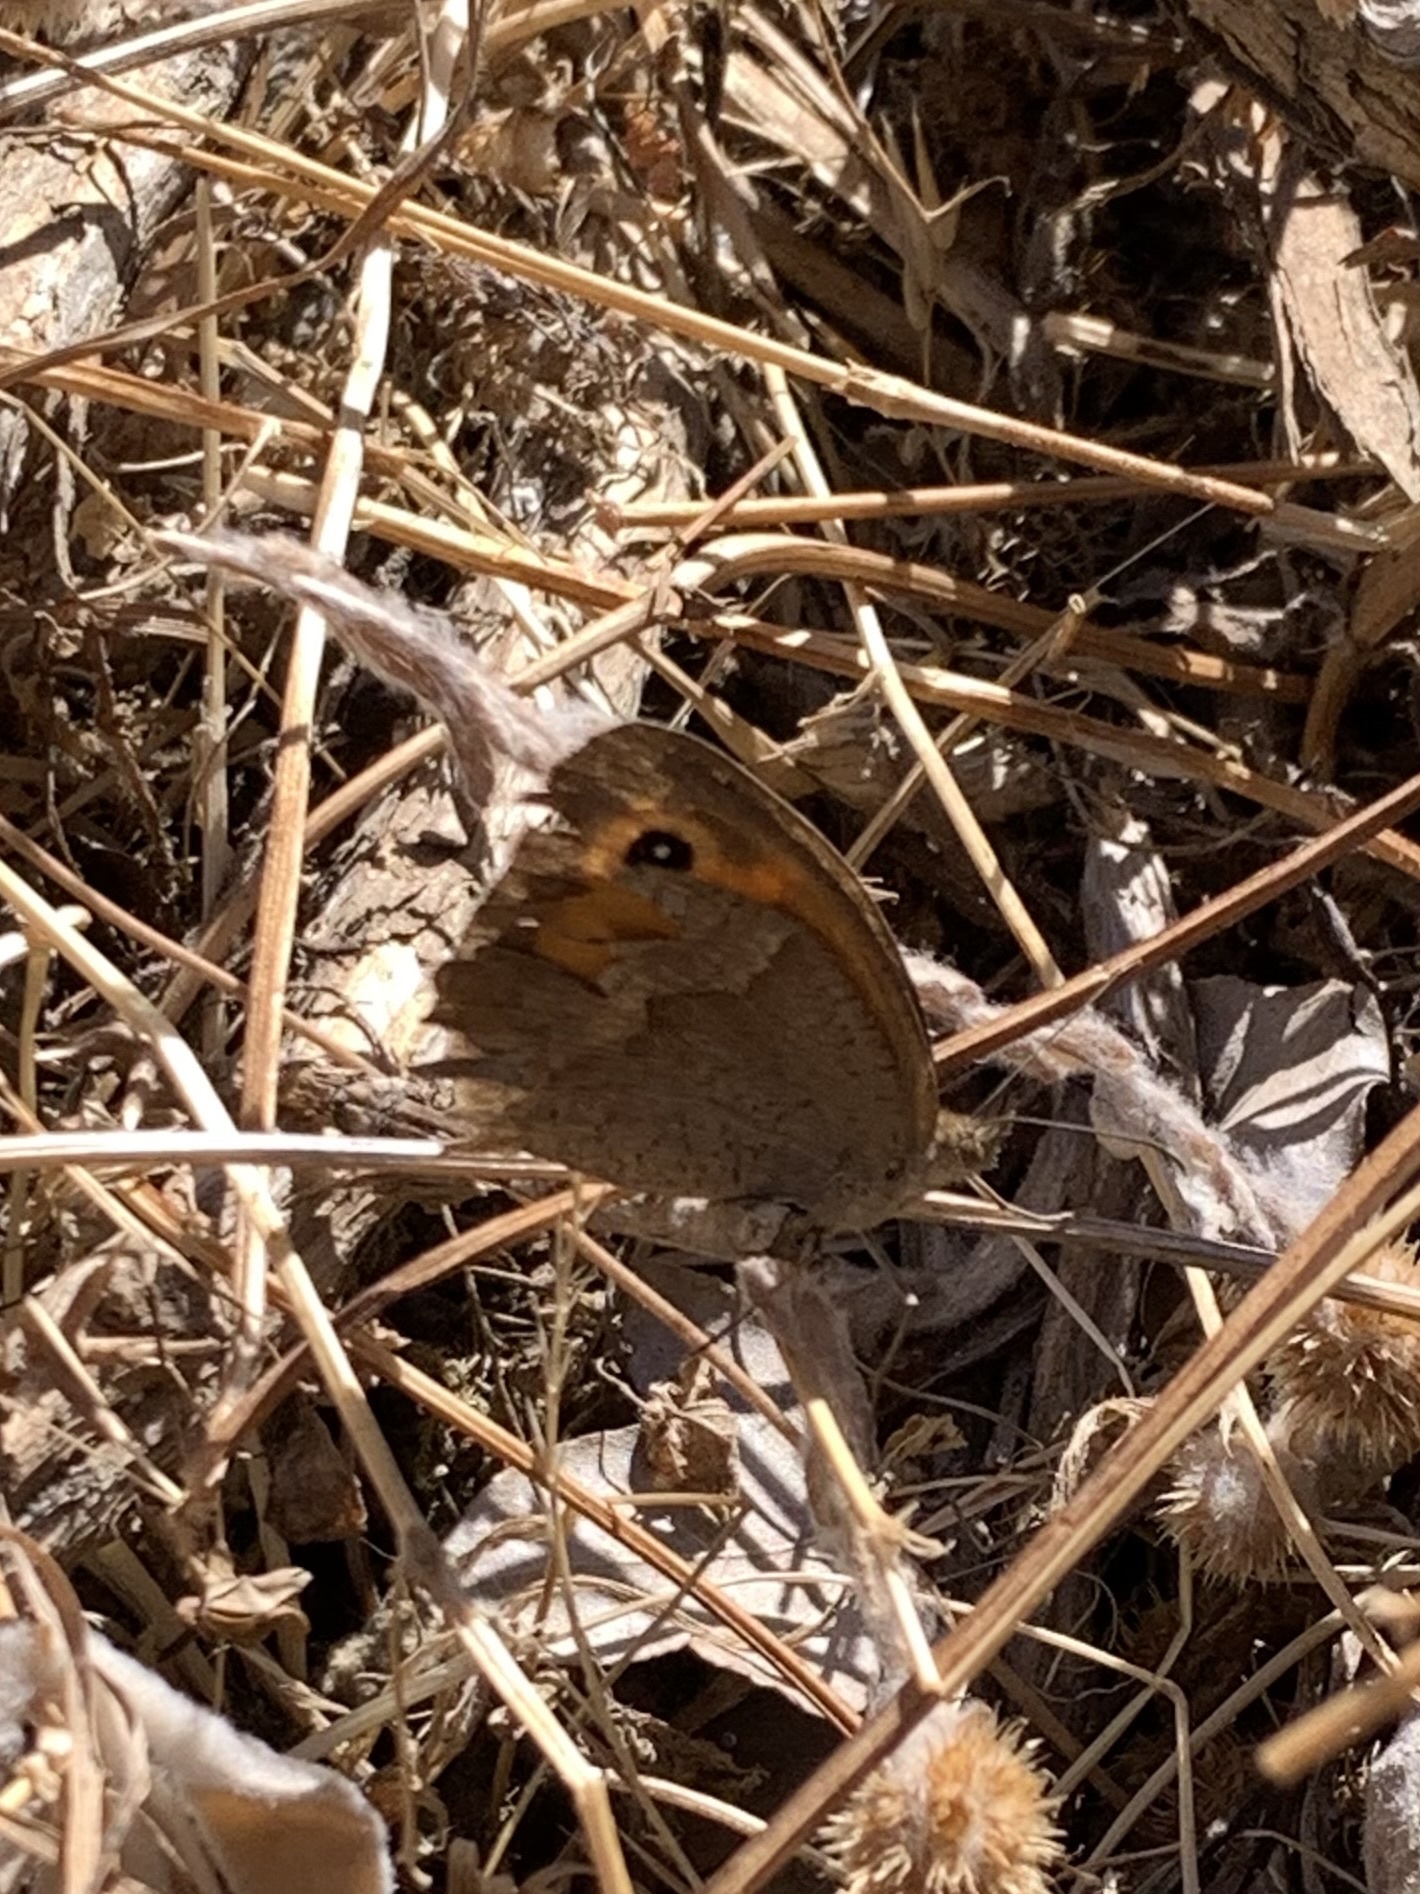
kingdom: Animalia
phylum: Arthropoda
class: Insecta
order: Lepidoptera
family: Nymphalidae
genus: Maniola
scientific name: Maniola jurtina
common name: Meadow brown
